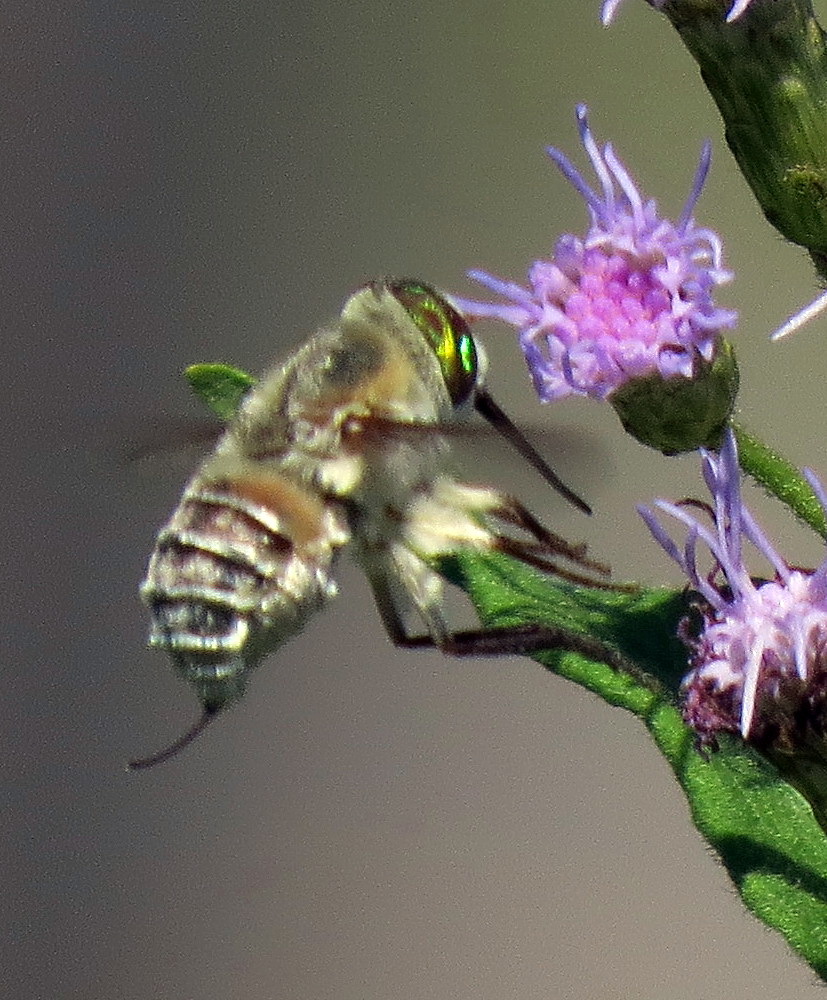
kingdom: Animalia
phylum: Arthropoda
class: Insecta
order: Diptera
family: Nemestrinidae
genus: Neorhynchocephalus
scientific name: Neorhynchocephalus volaticus
